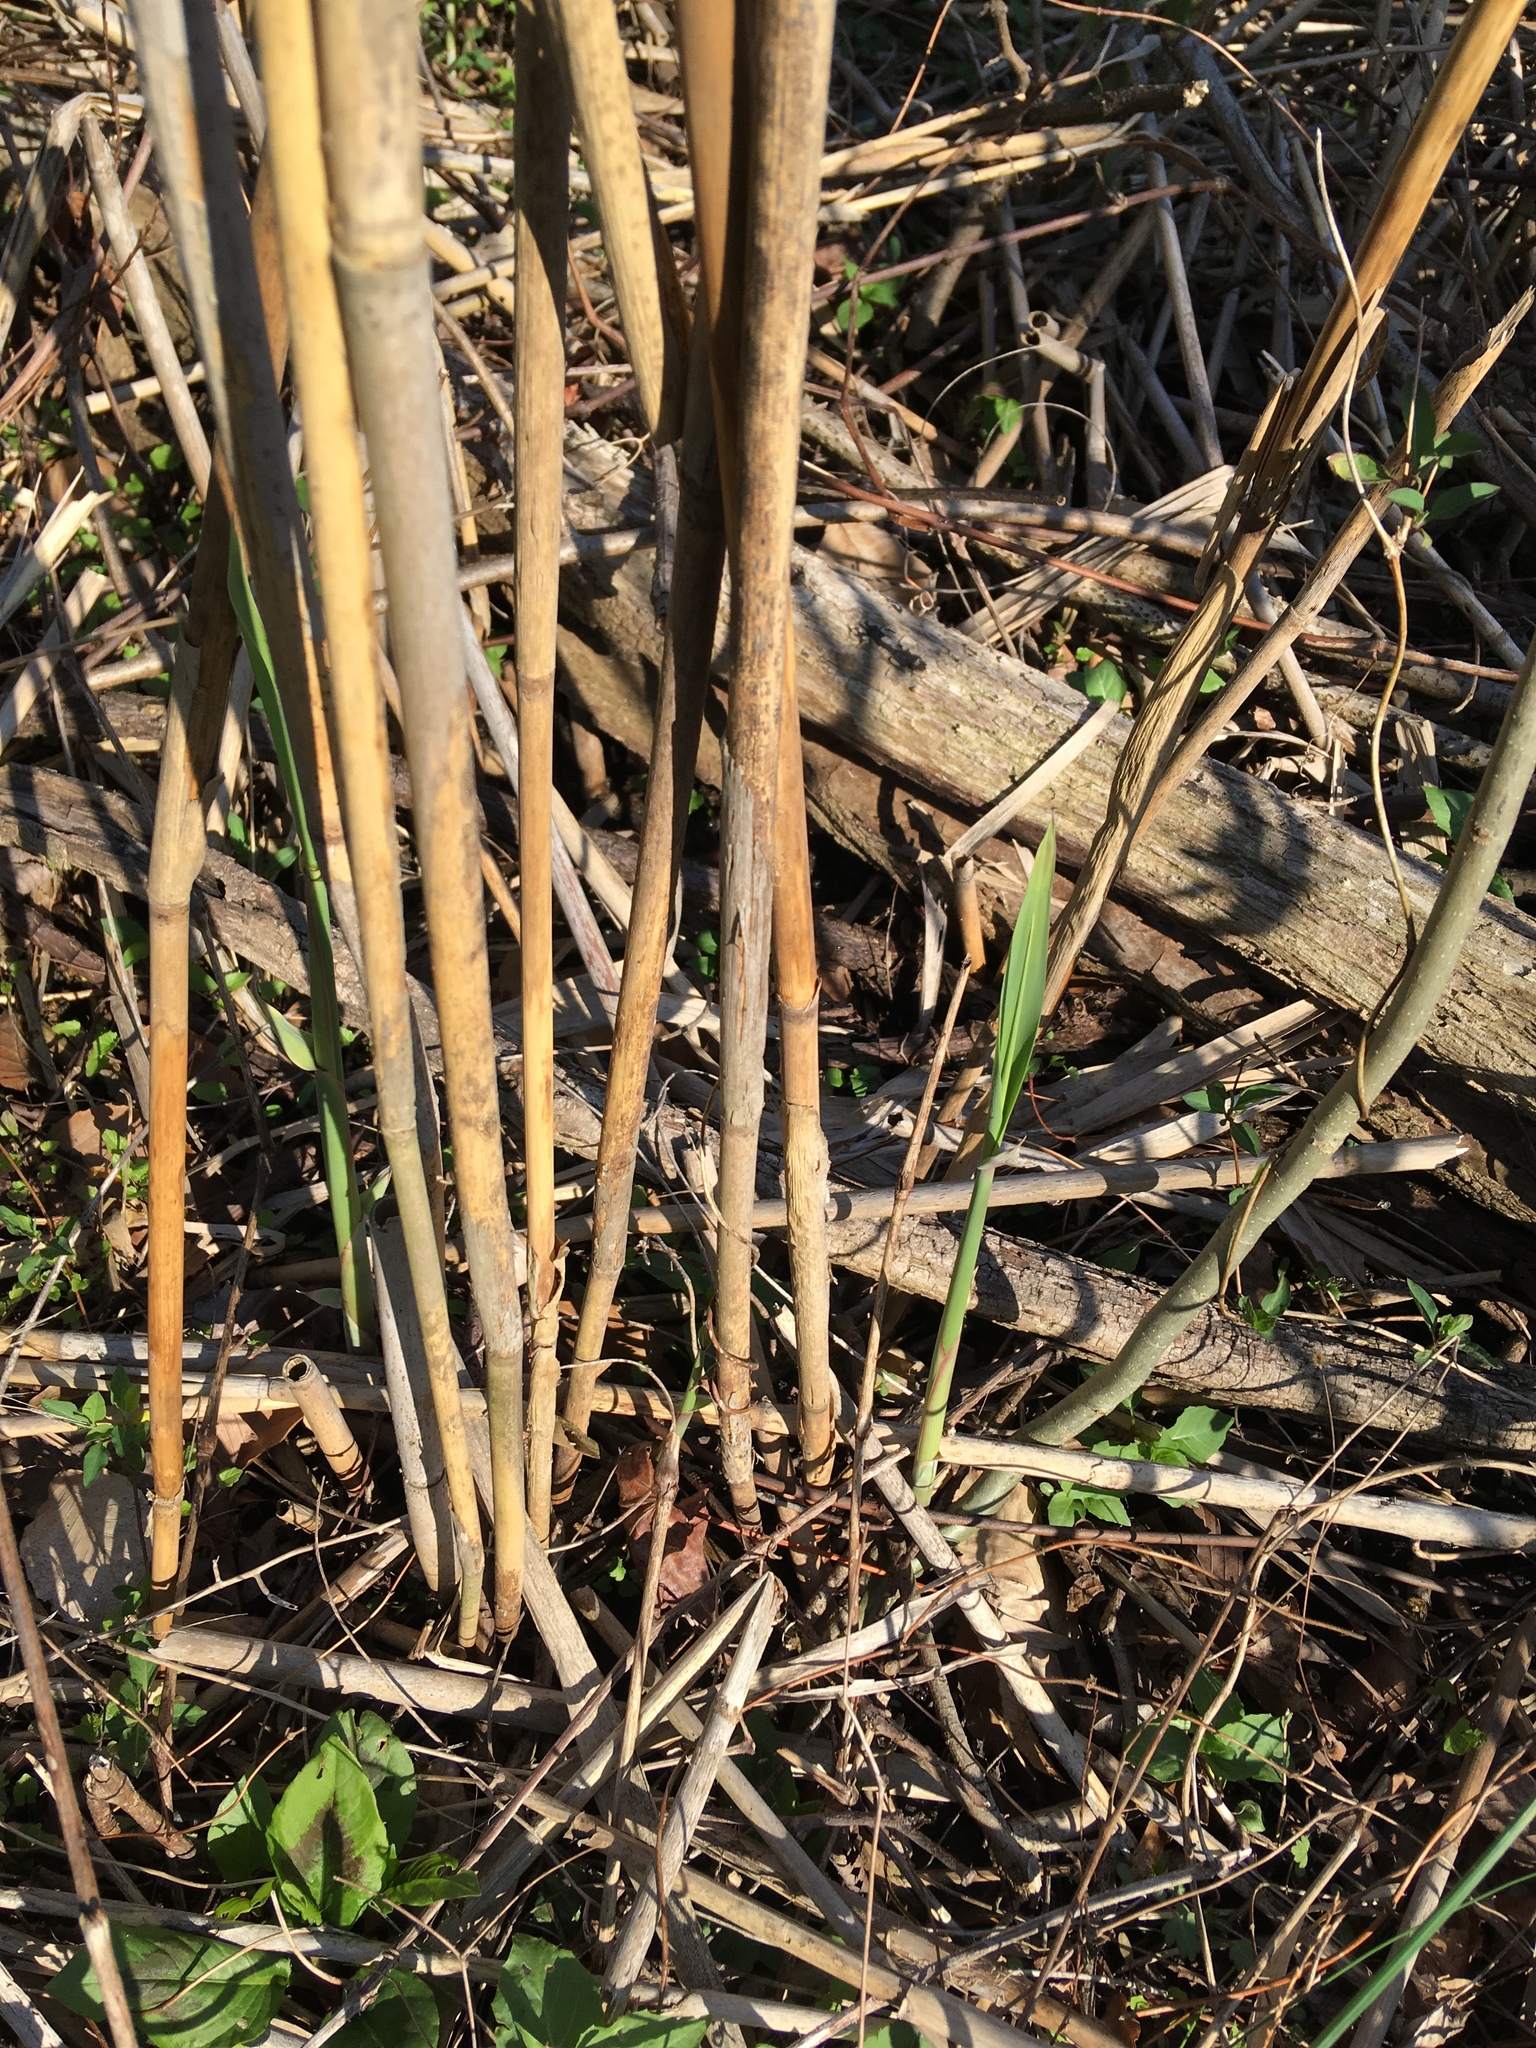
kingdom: Plantae
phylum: Tracheophyta
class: Liliopsida
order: Poales
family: Poaceae
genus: Phragmites
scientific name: Phragmites australis
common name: Common reed
